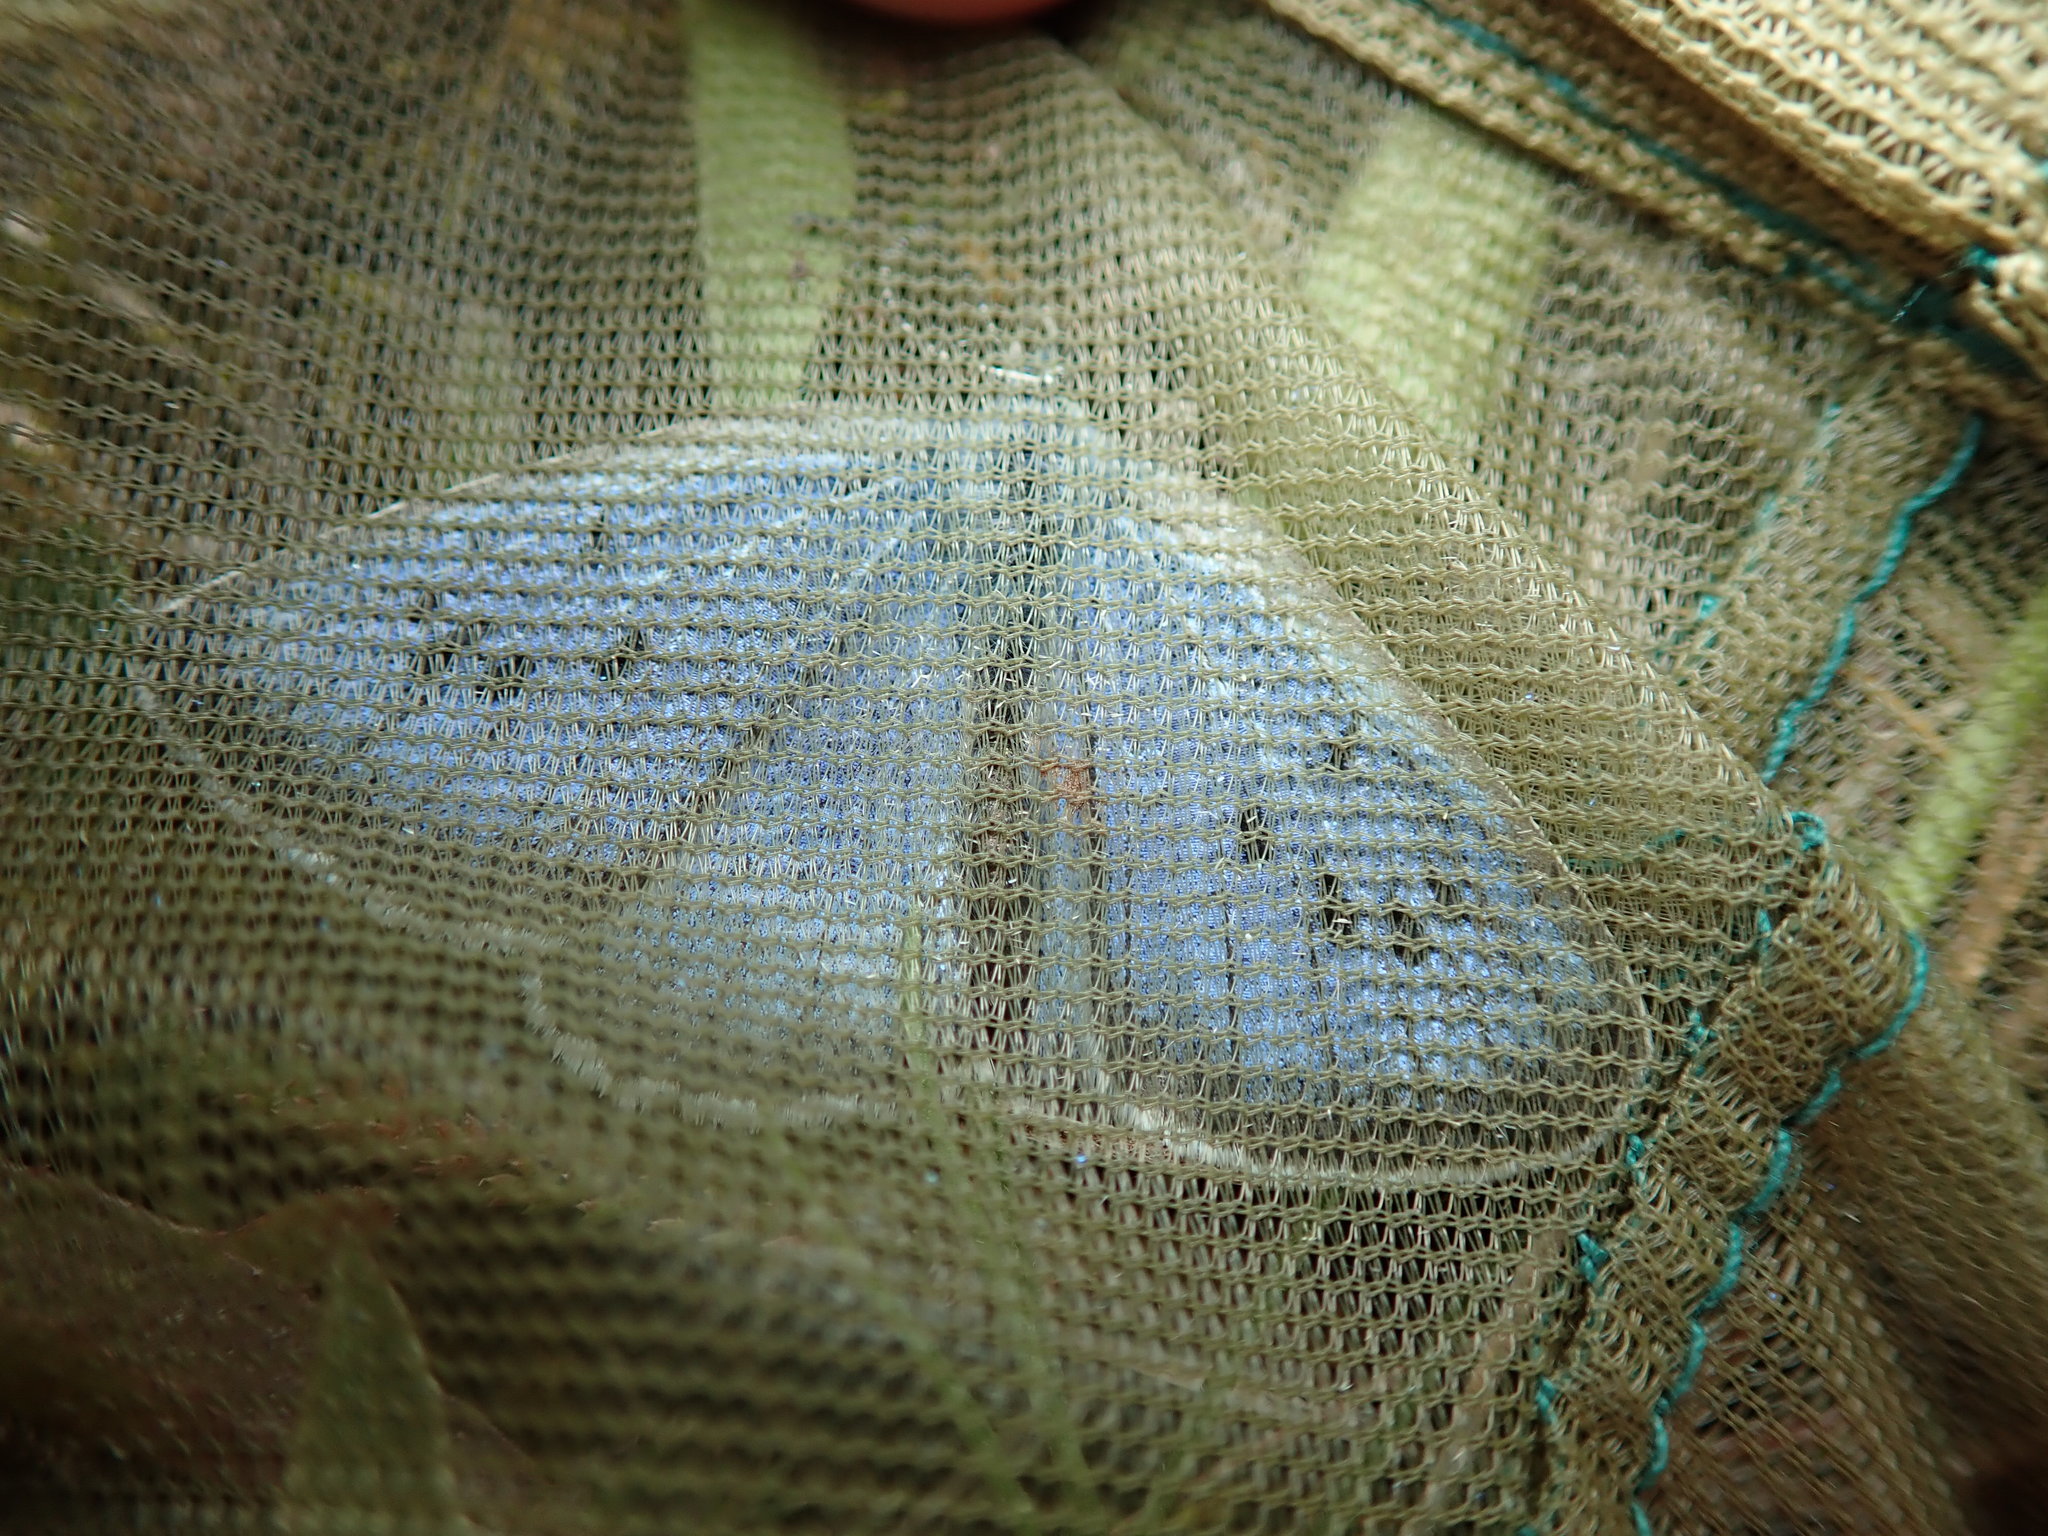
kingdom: Animalia
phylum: Arthropoda
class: Insecta
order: Lepidoptera
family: Lycaenidae
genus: Maculinea
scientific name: Maculinea arion
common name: Large blue
